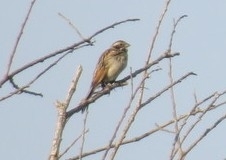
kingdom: Animalia
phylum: Chordata
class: Aves
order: Passeriformes
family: Emberizidae
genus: Emberiza
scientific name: Emberiza schoeniclus
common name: Reed bunting
